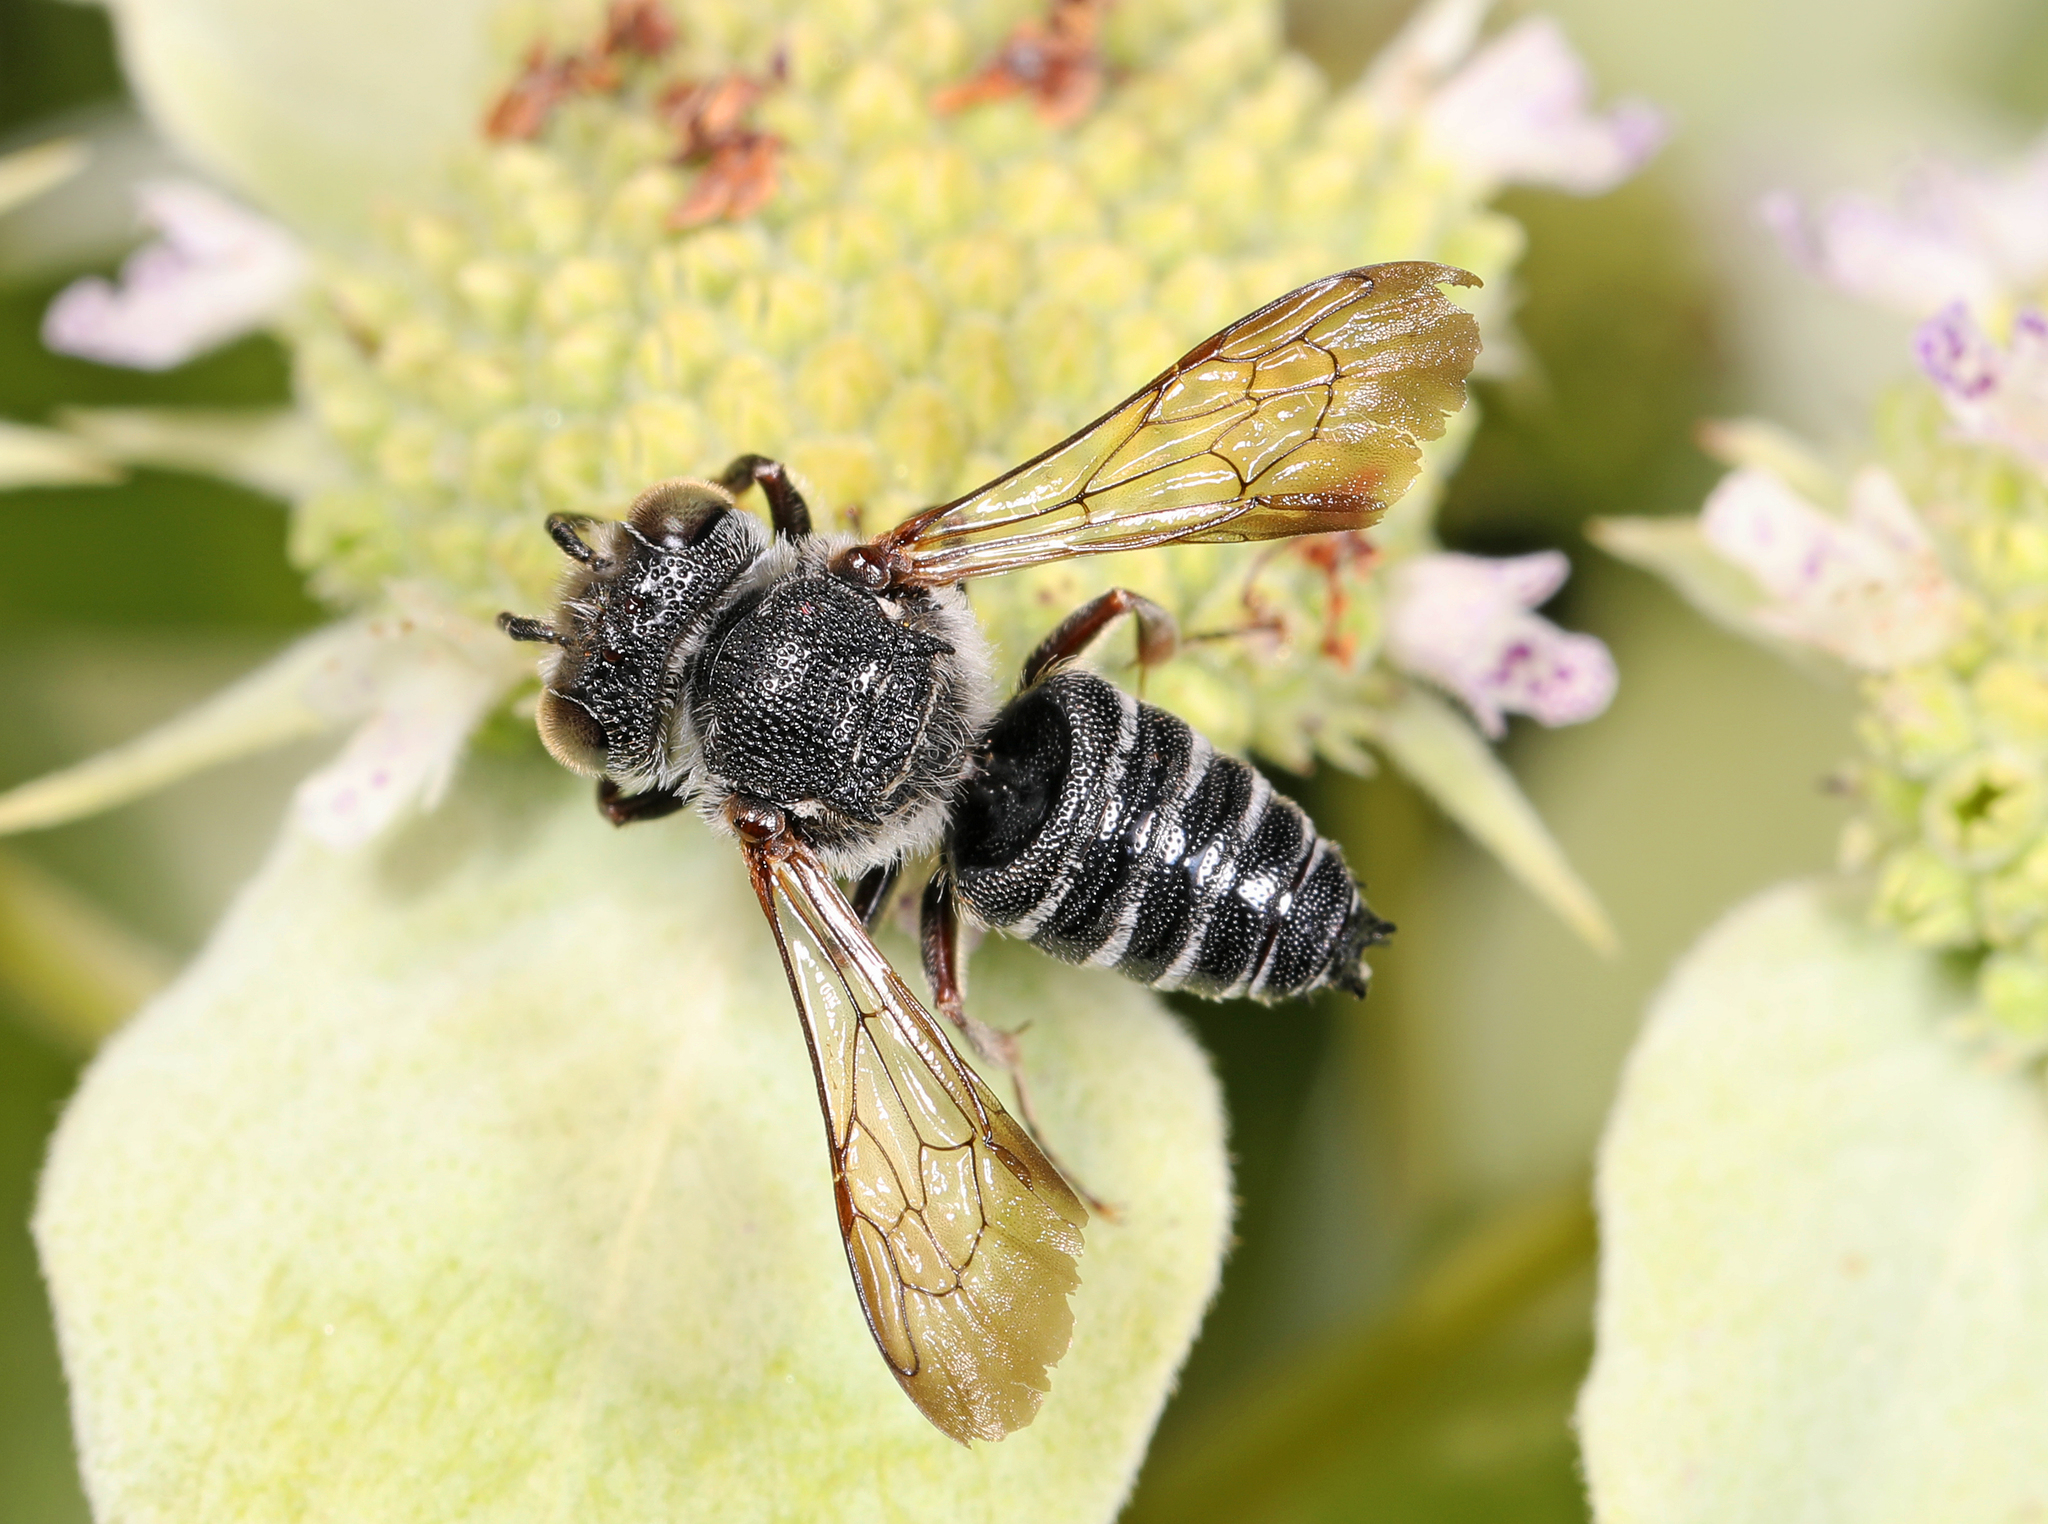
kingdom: Animalia
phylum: Arthropoda
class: Insecta
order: Hymenoptera
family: Megachilidae
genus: Coelioxys
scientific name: Coelioxys
